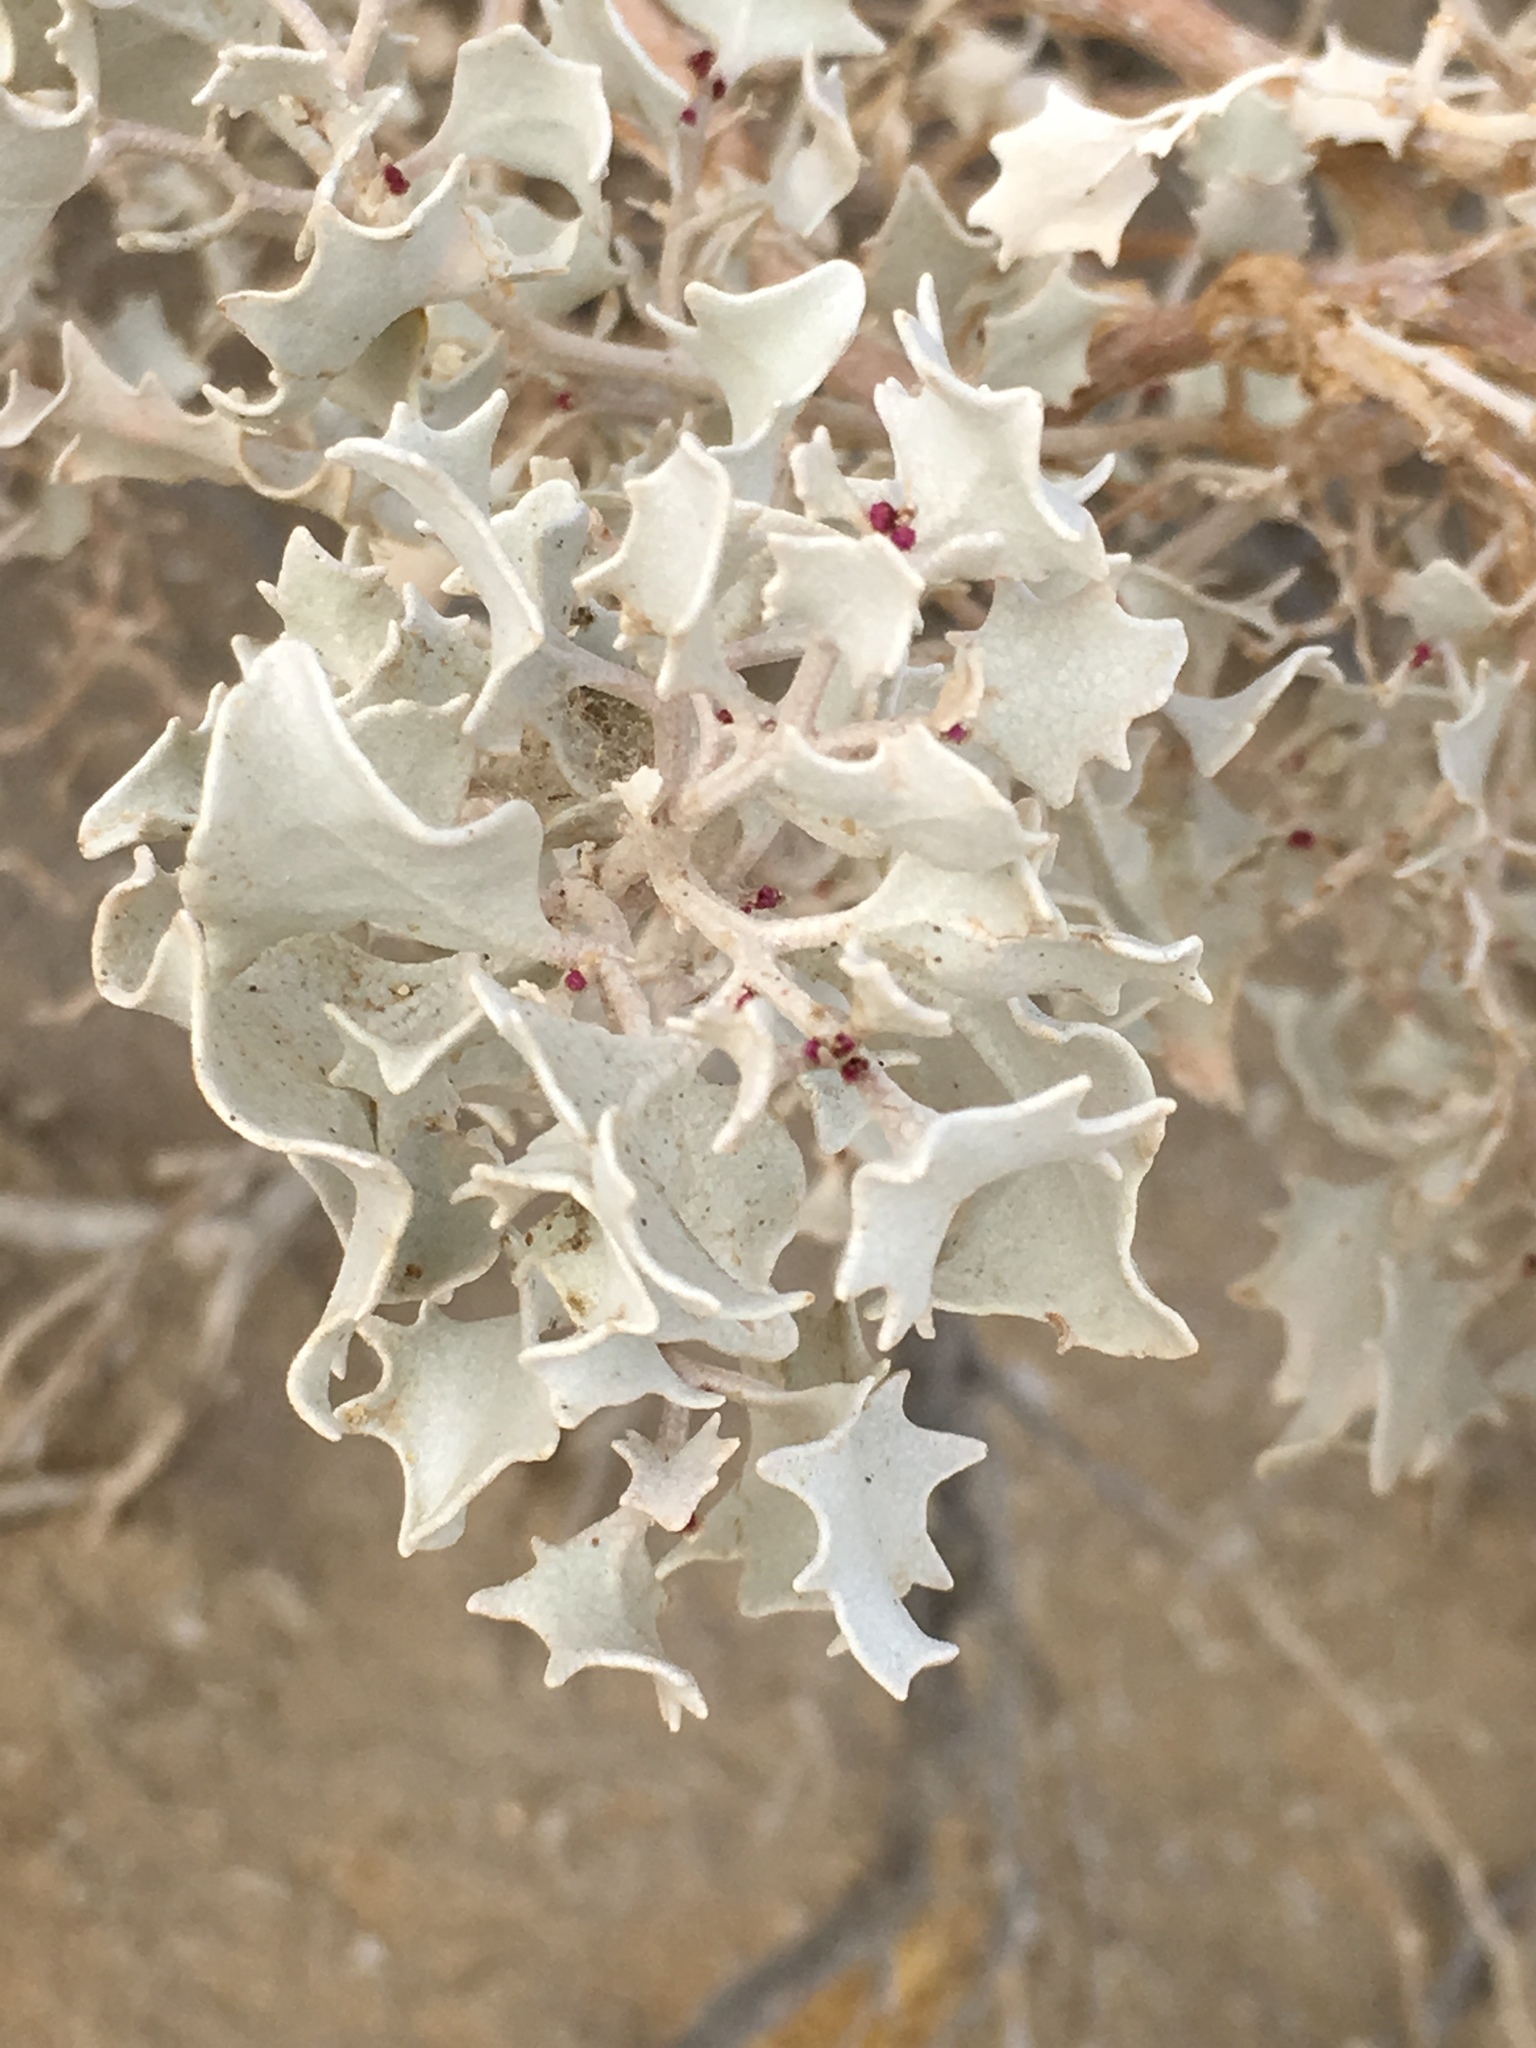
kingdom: Plantae
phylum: Tracheophyta
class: Magnoliopsida
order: Caryophyllales
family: Amaranthaceae
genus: Atriplex
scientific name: Atriplex hymenelytra
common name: Desert-holly
